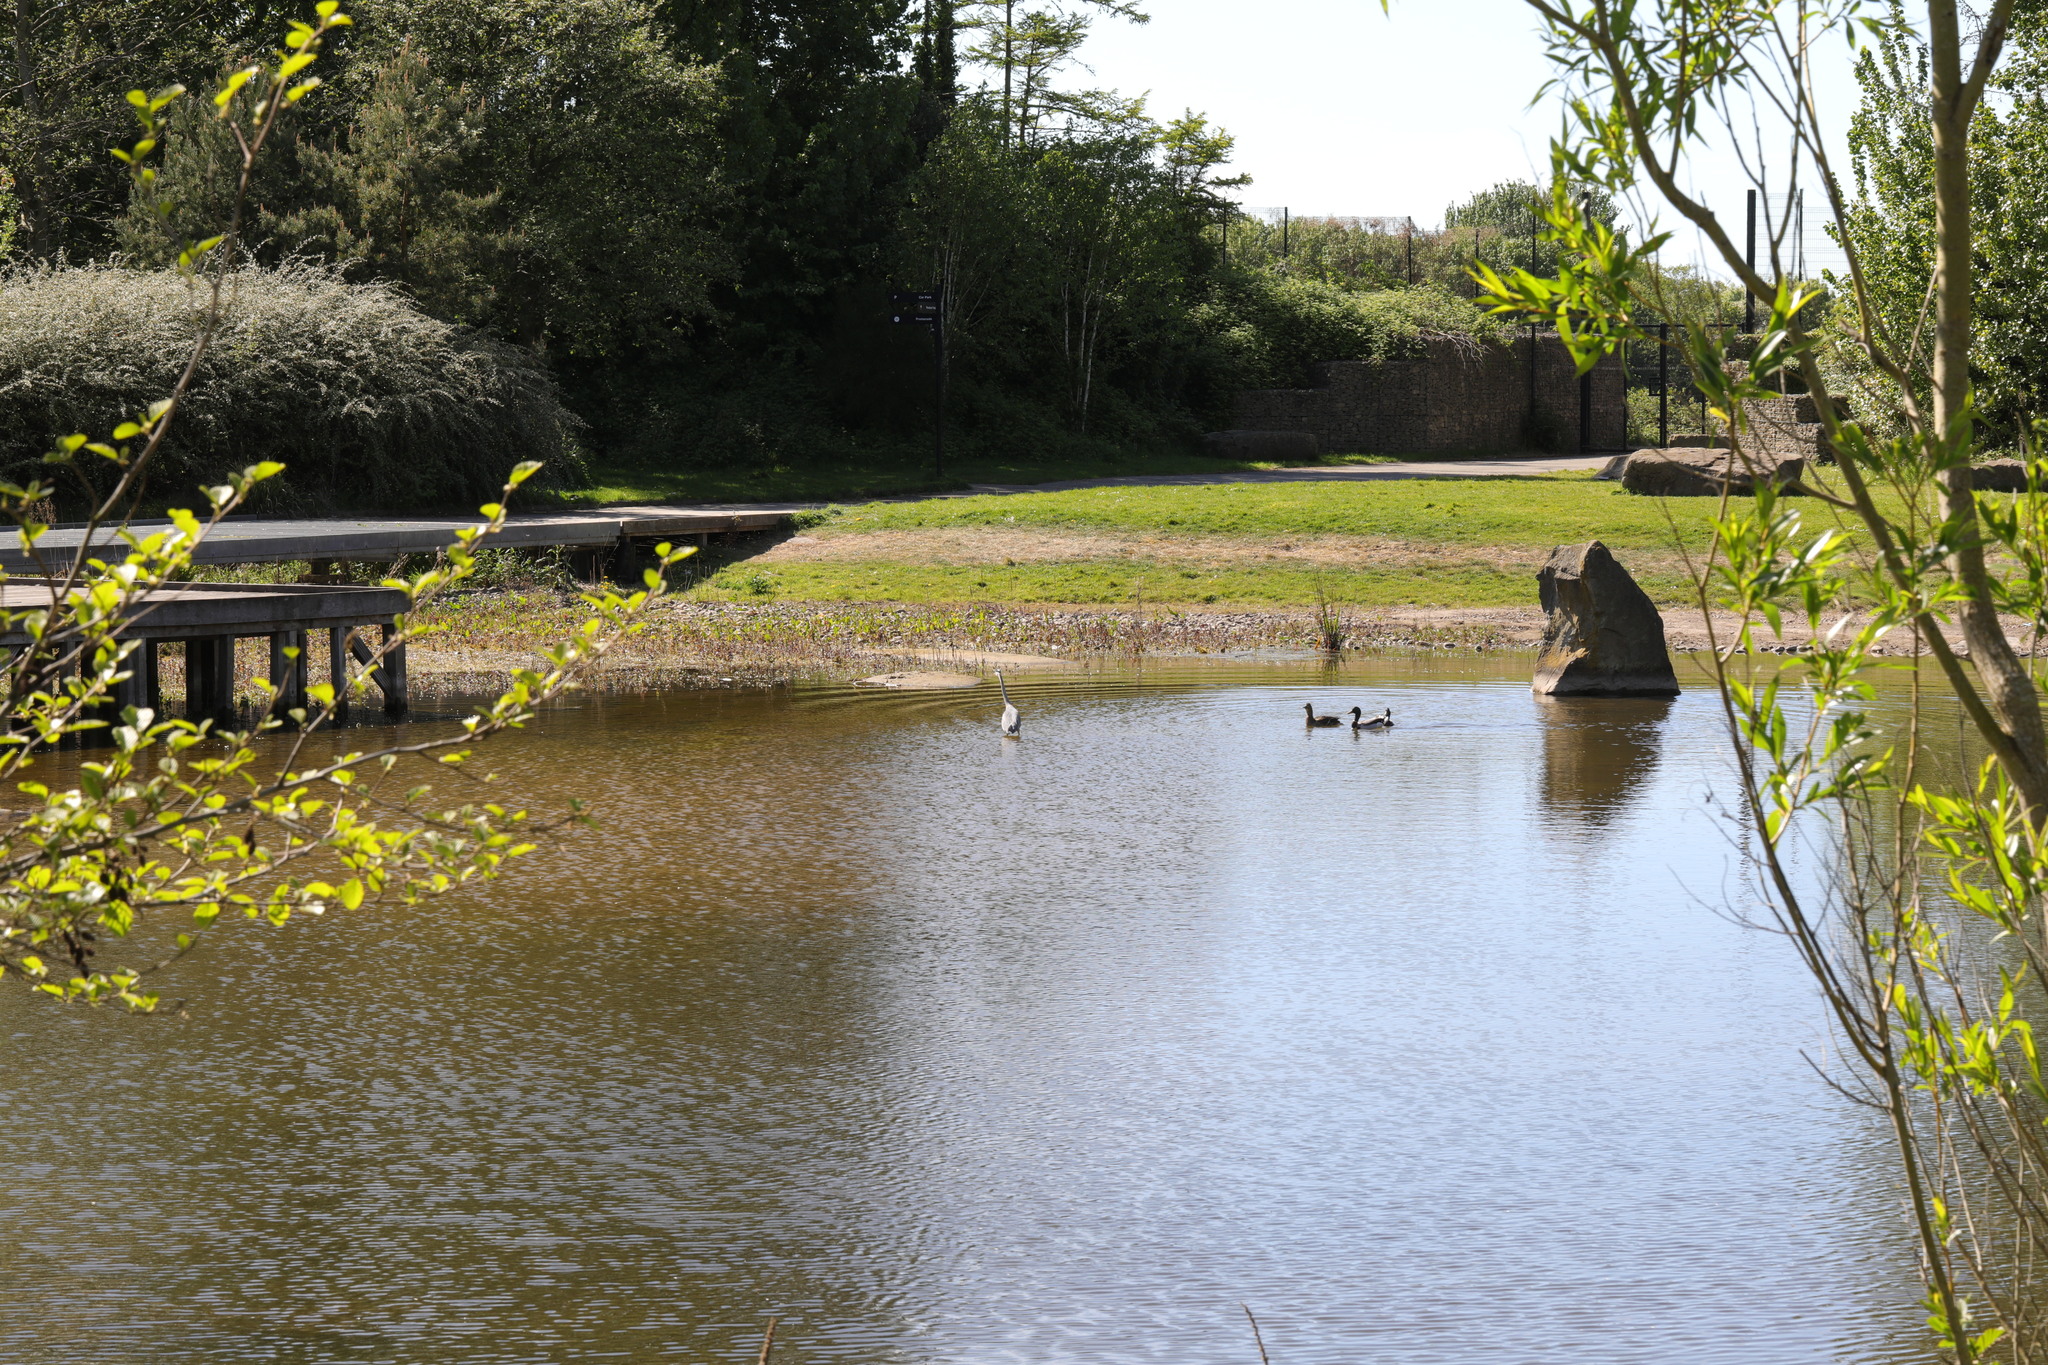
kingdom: Animalia
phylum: Chordata
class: Aves
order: Anseriformes
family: Anatidae
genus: Anas
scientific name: Anas platyrhynchos
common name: Mallard
